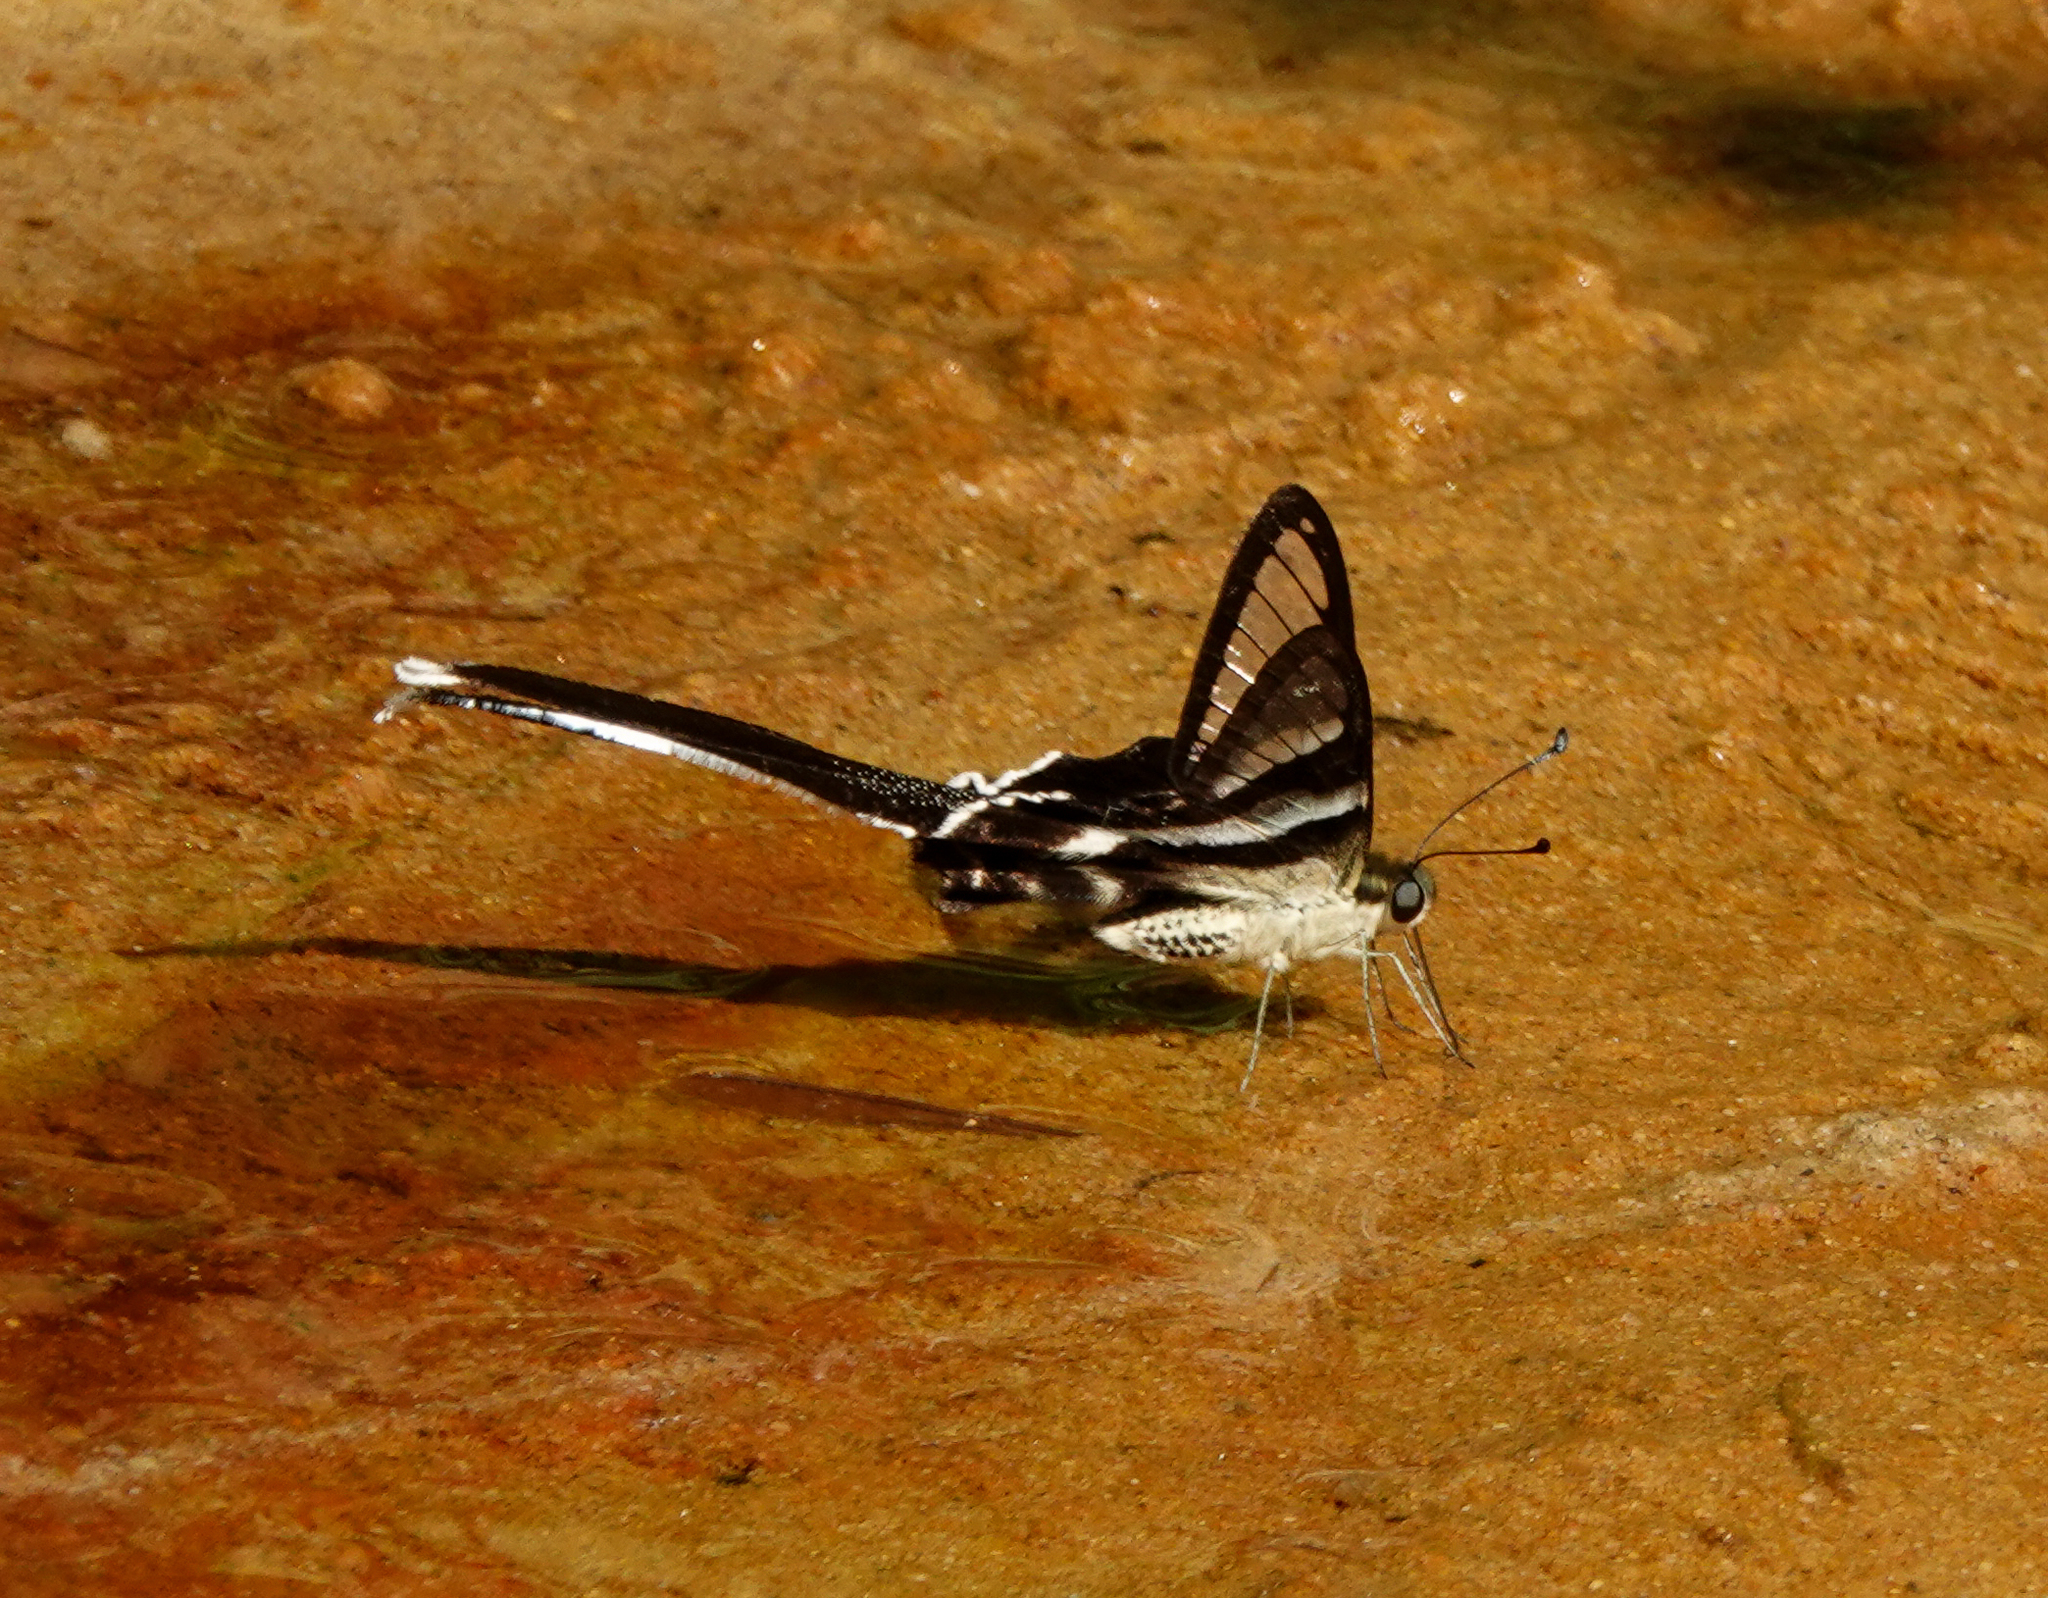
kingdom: Animalia
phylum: Arthropoda
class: Insecta
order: Lepidoptera
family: Papilionidae
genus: Lamproptera
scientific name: Lamproptera curius
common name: White dragontail
